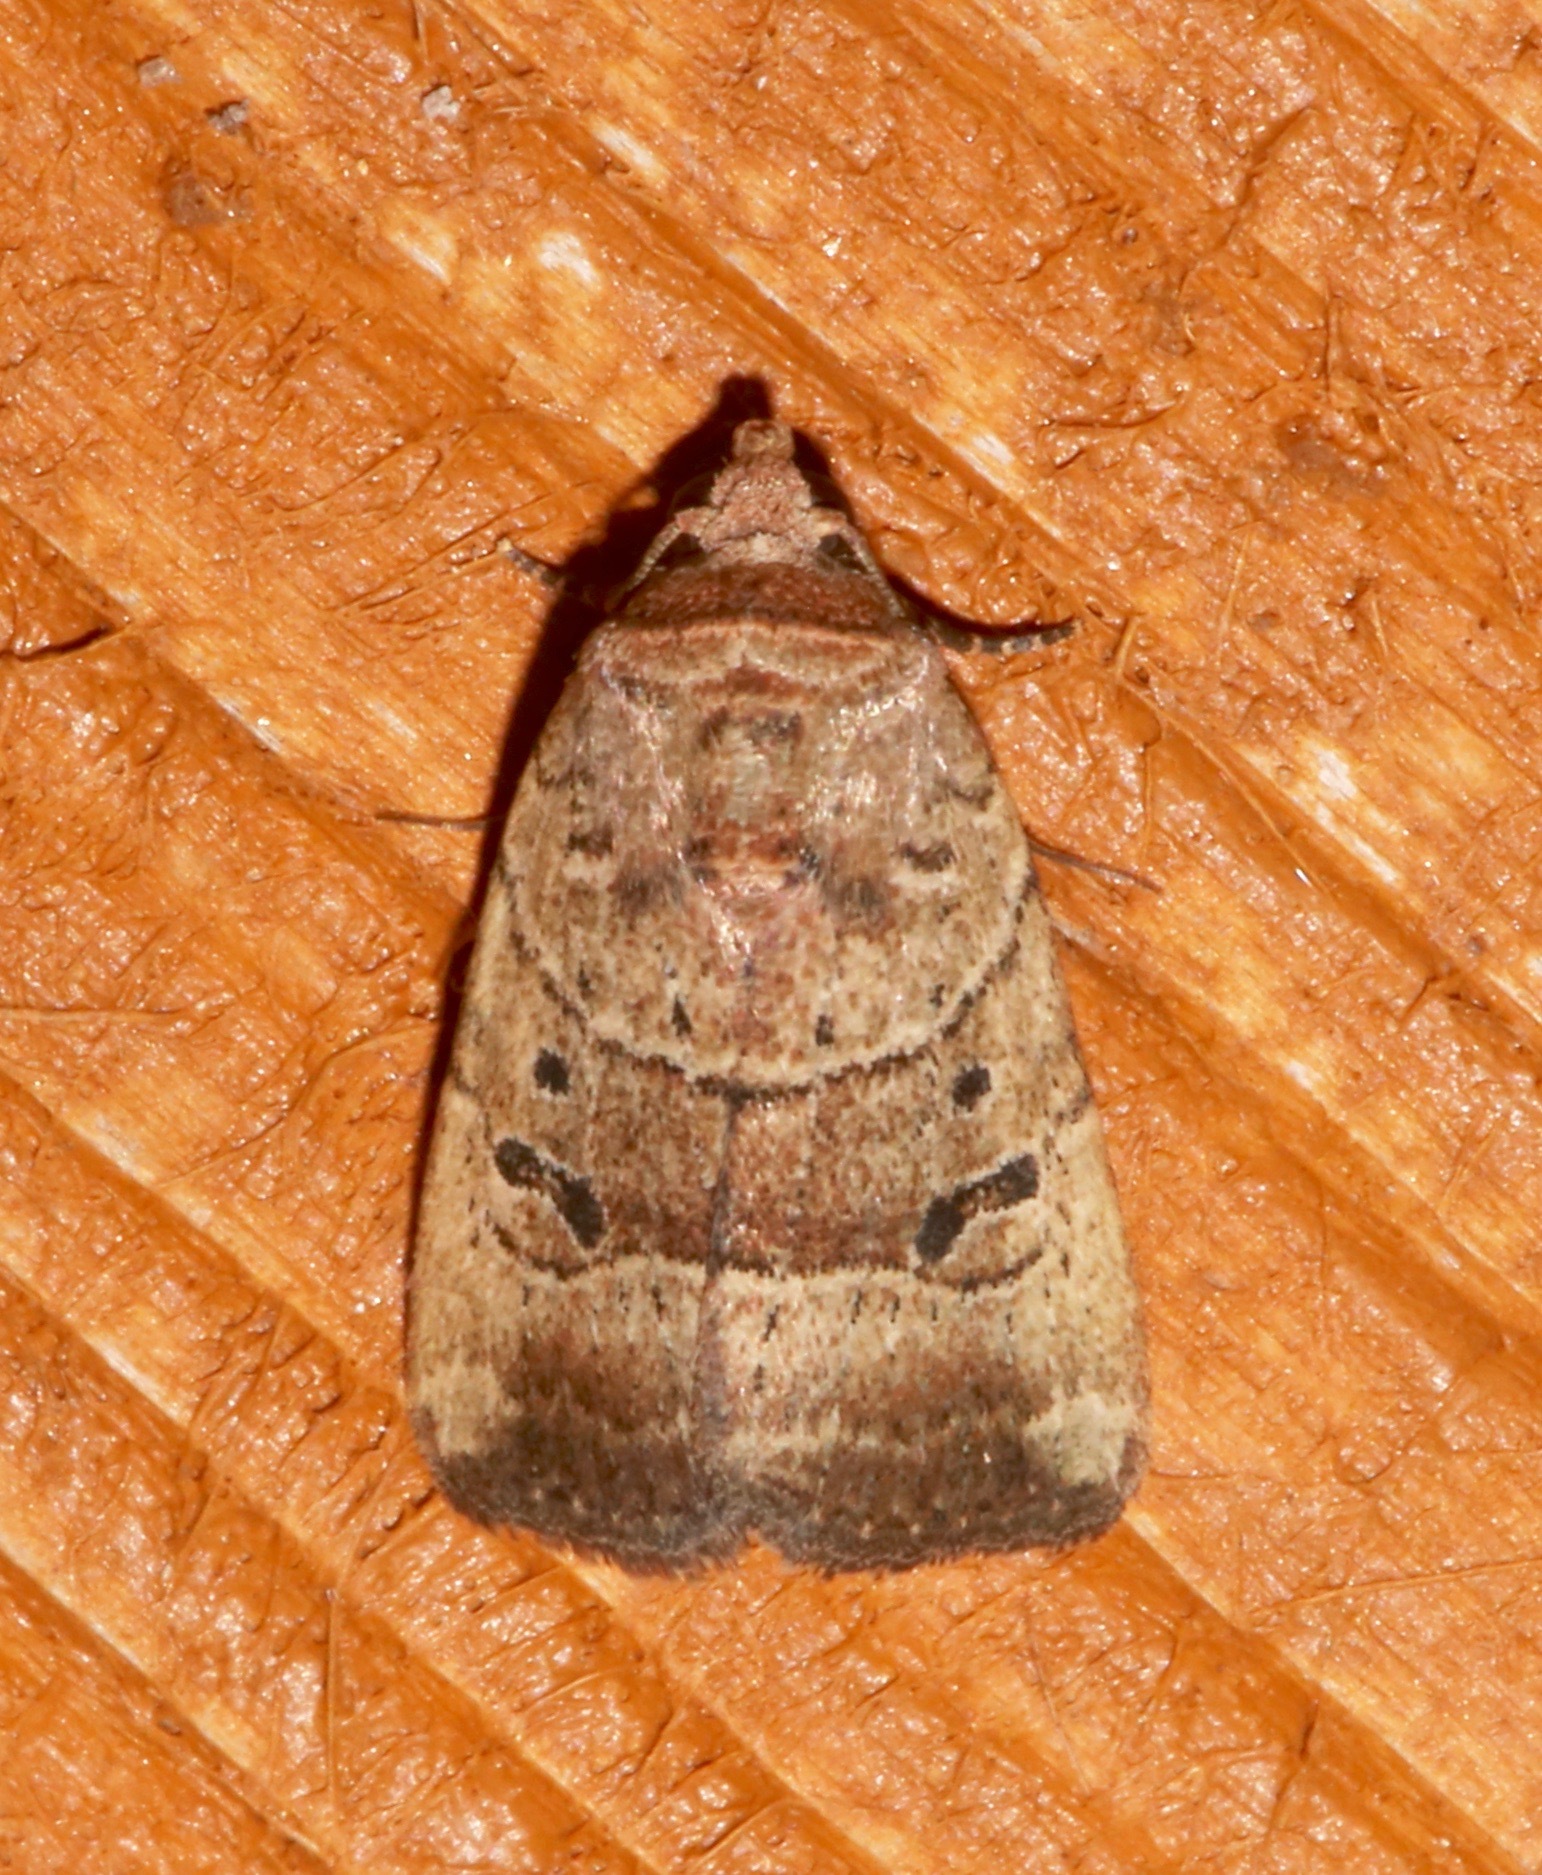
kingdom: Animalia
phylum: Arthropoda
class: Insecta
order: Lepidoptera
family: Noctuidae
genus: Elaphria
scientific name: Elaphria fuscimacula
